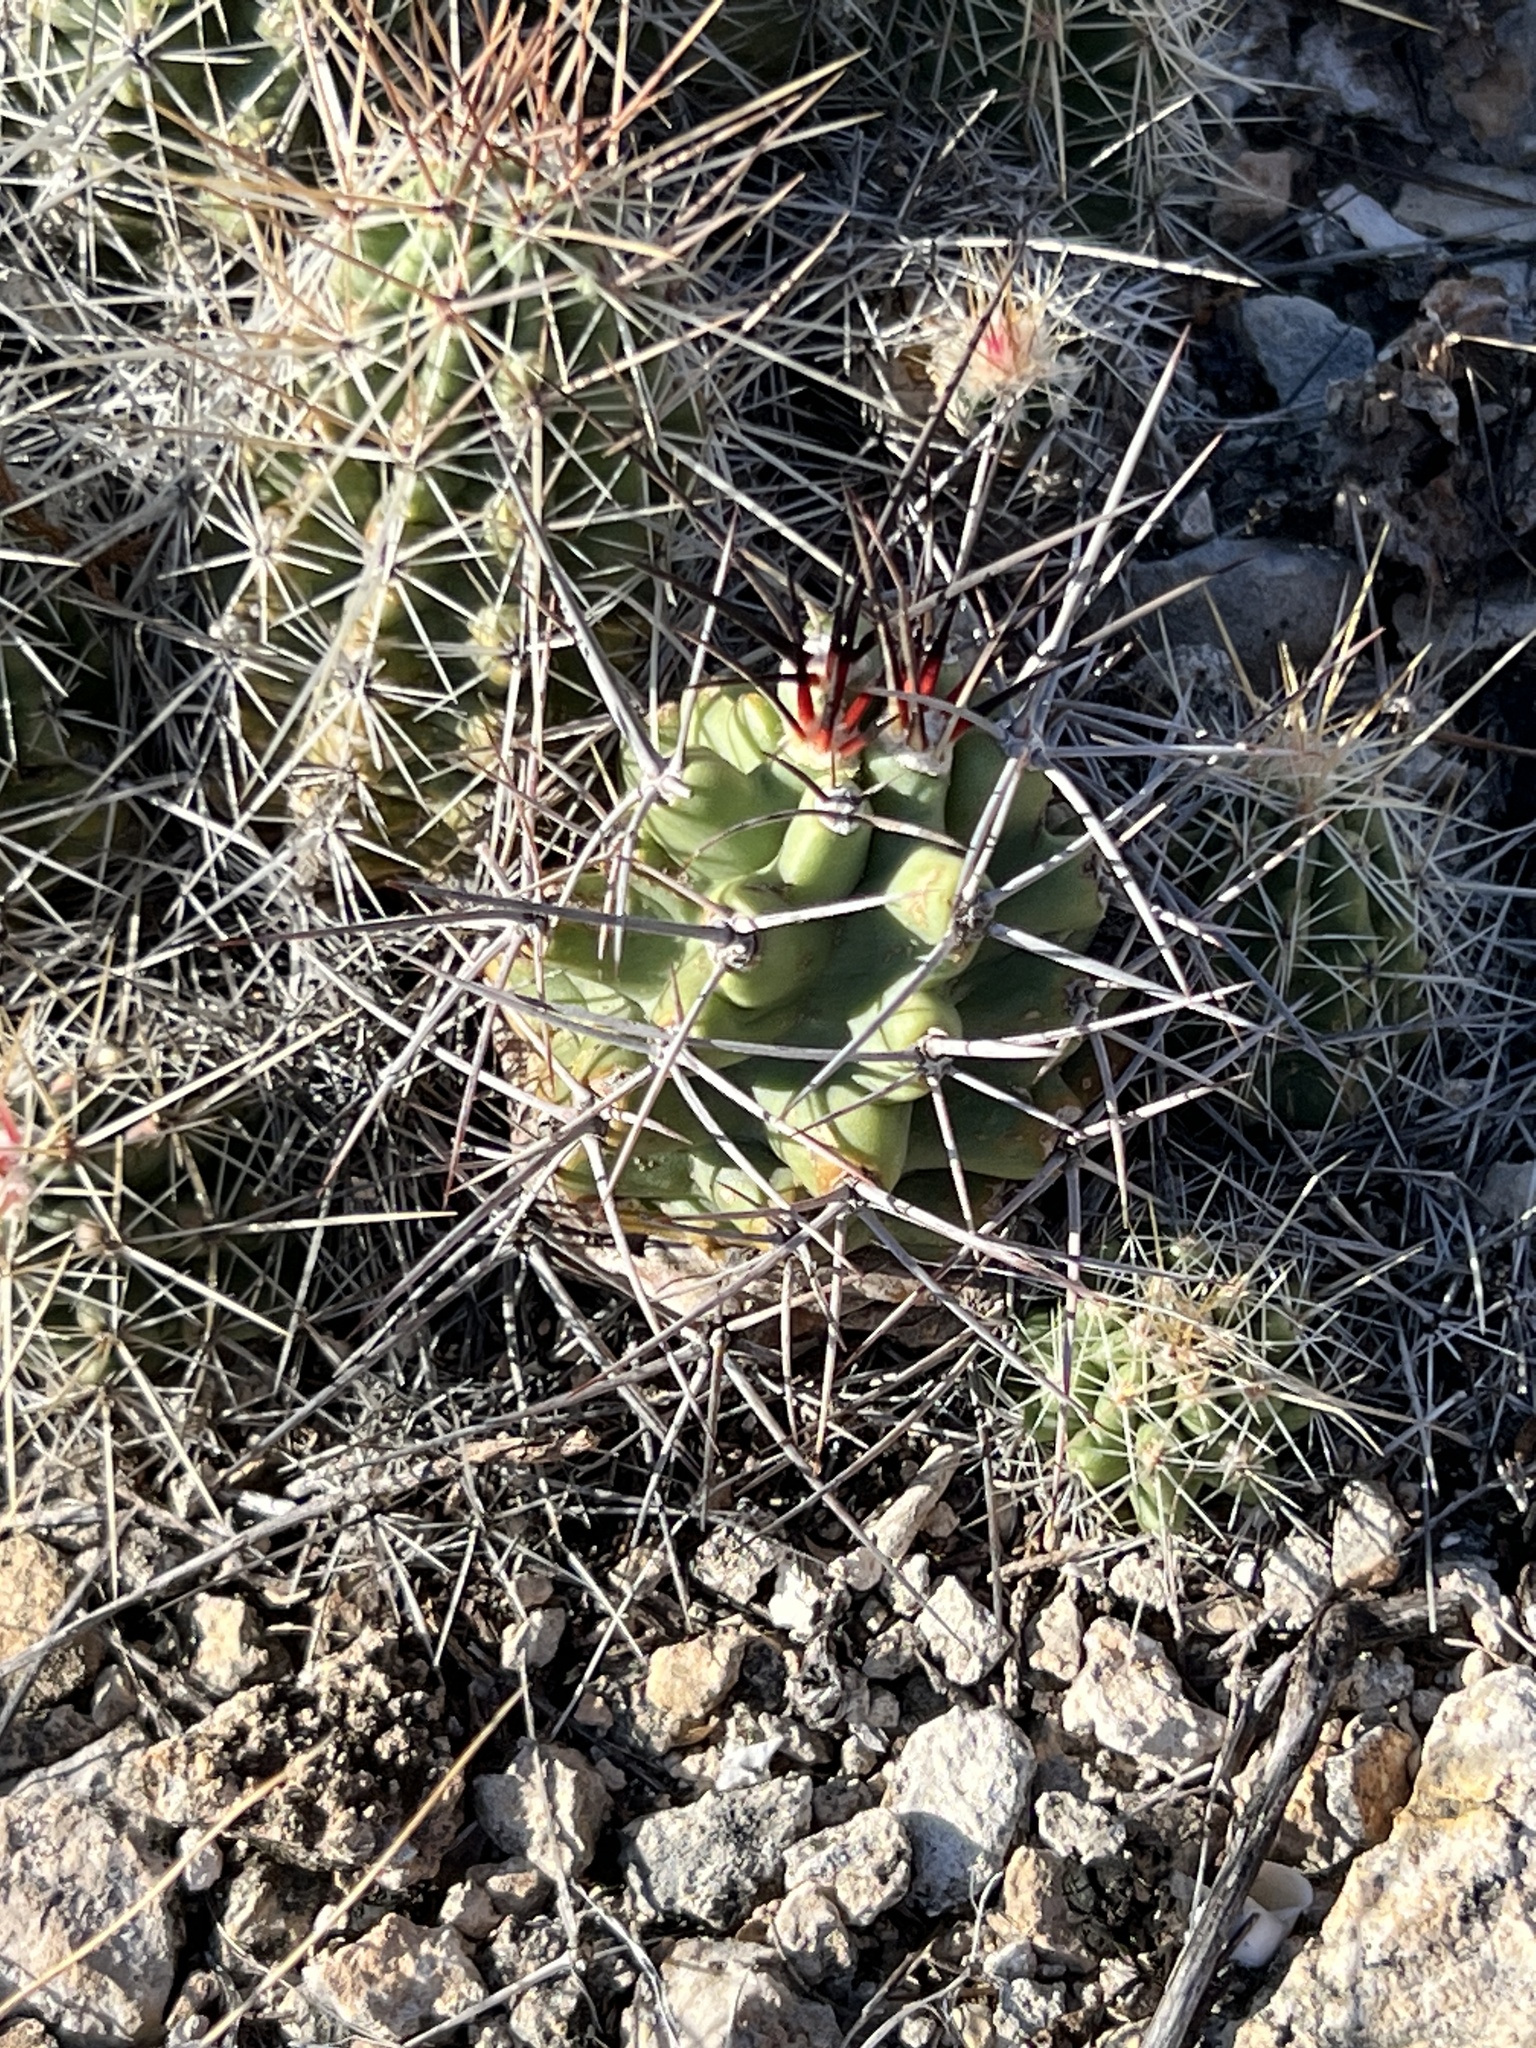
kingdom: Plantae
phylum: Tracheophyta
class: Magnoliopsida
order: Caryophyllales
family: Cactaceae
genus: Echinocereus
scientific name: Echinocereus coccineus
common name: Scarlet hedgehog cactus
